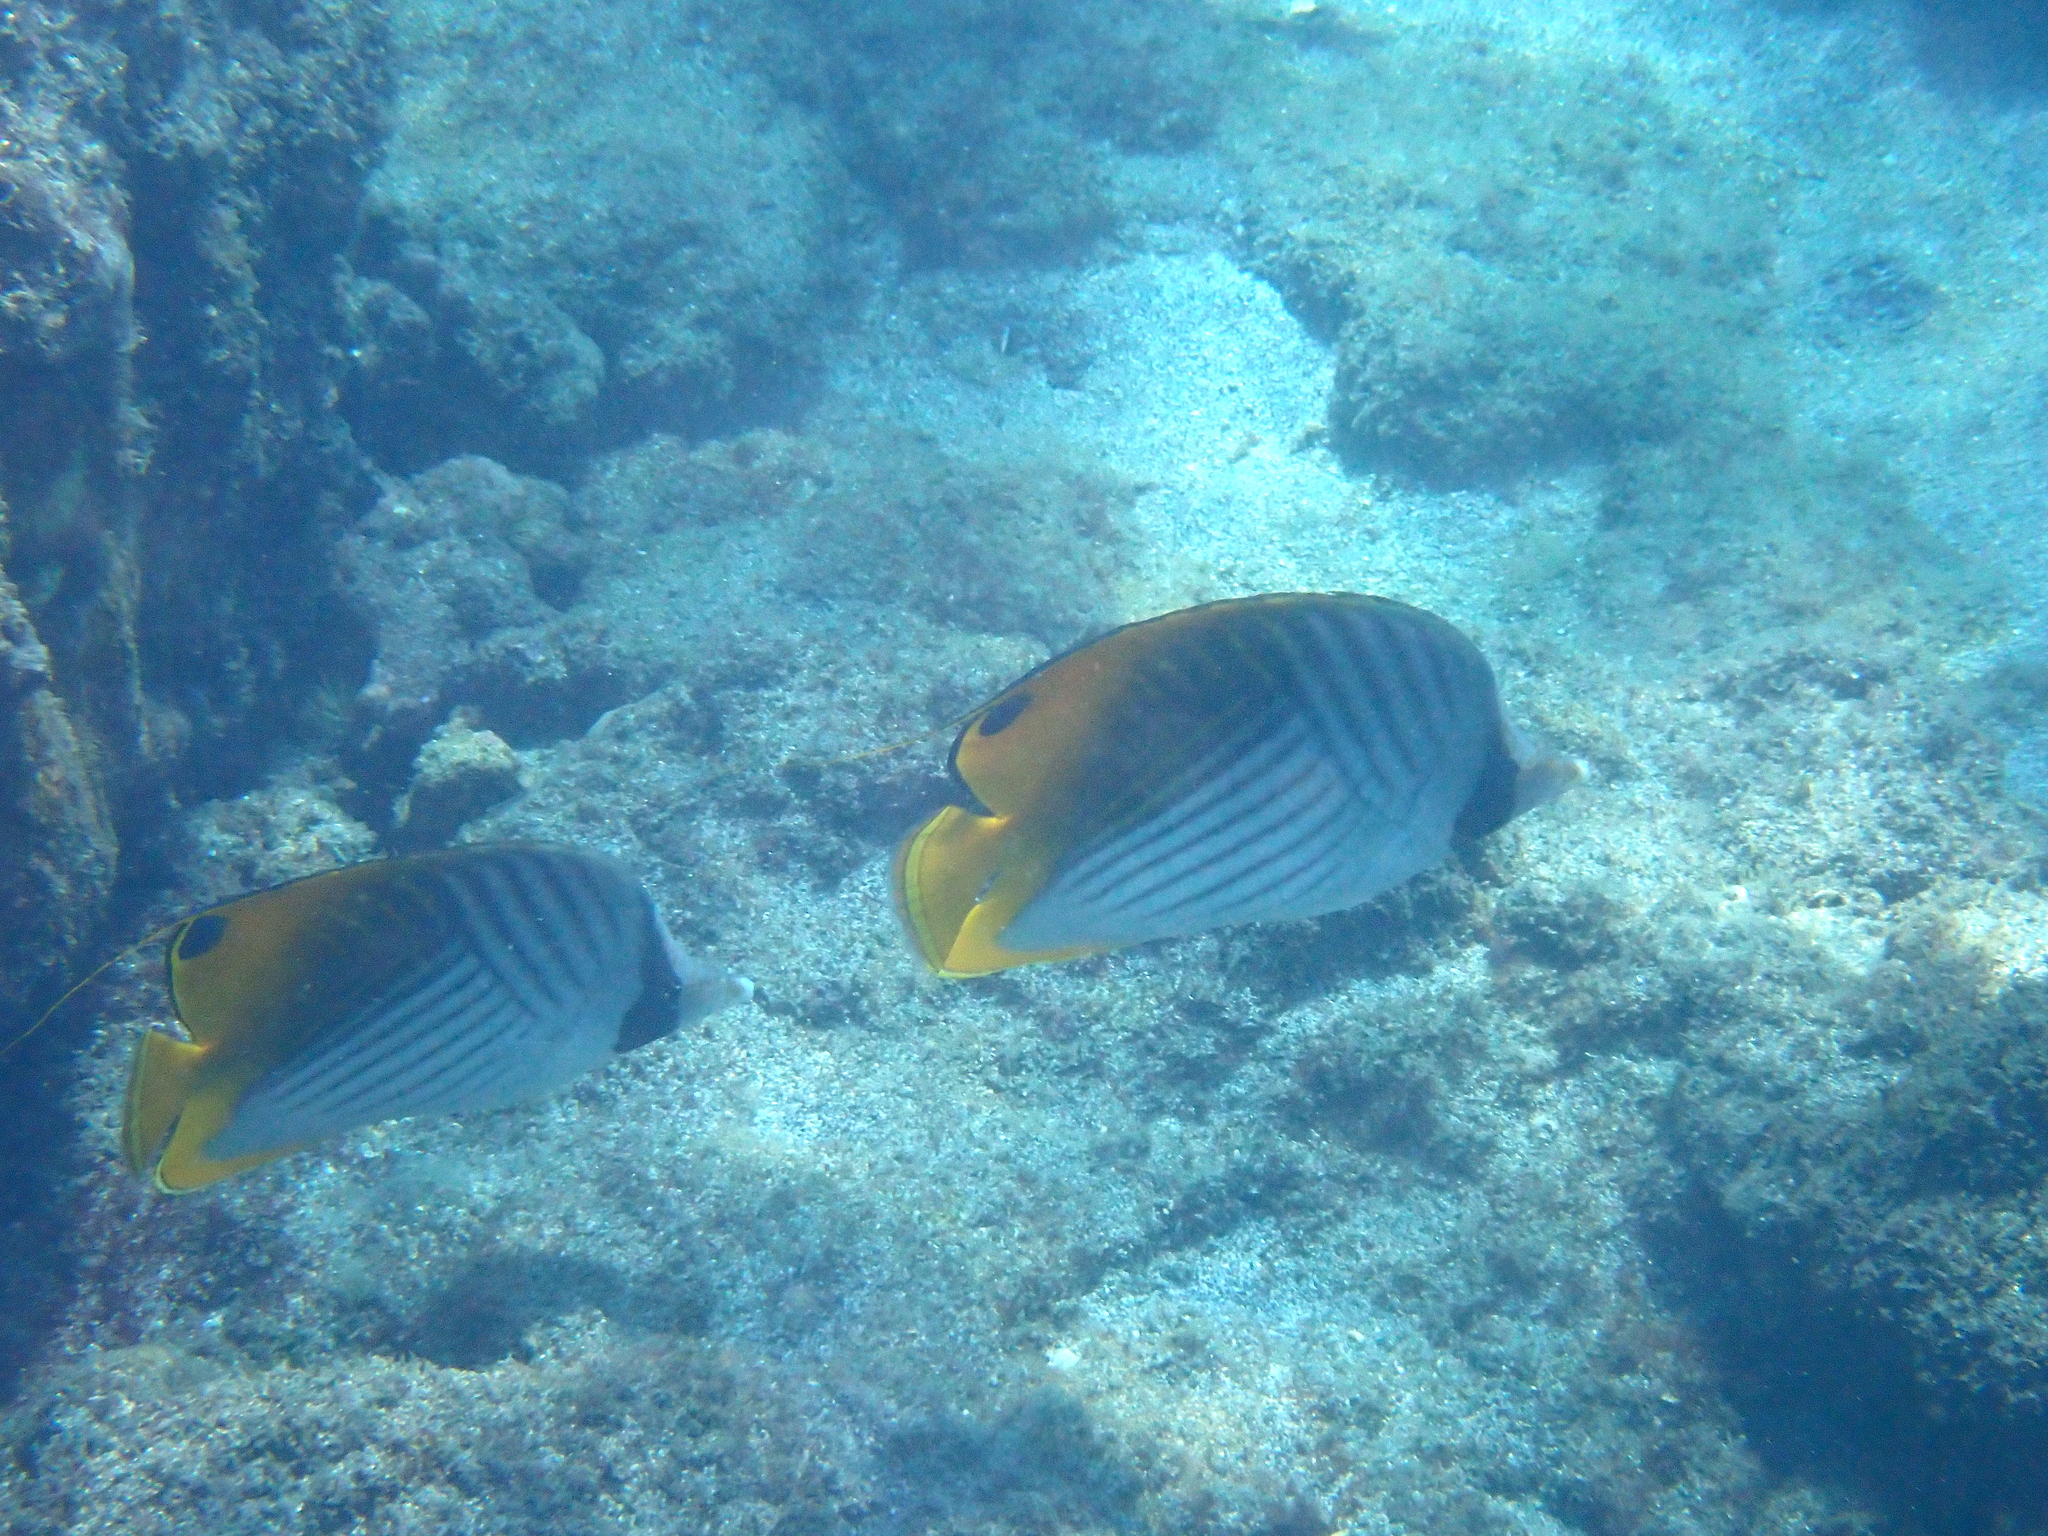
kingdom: Animalia
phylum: Chordata
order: Perciformes
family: Chaetodontidae
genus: Chaetodon
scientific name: Chaetodon auriga
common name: Threadfin butterflyfish
